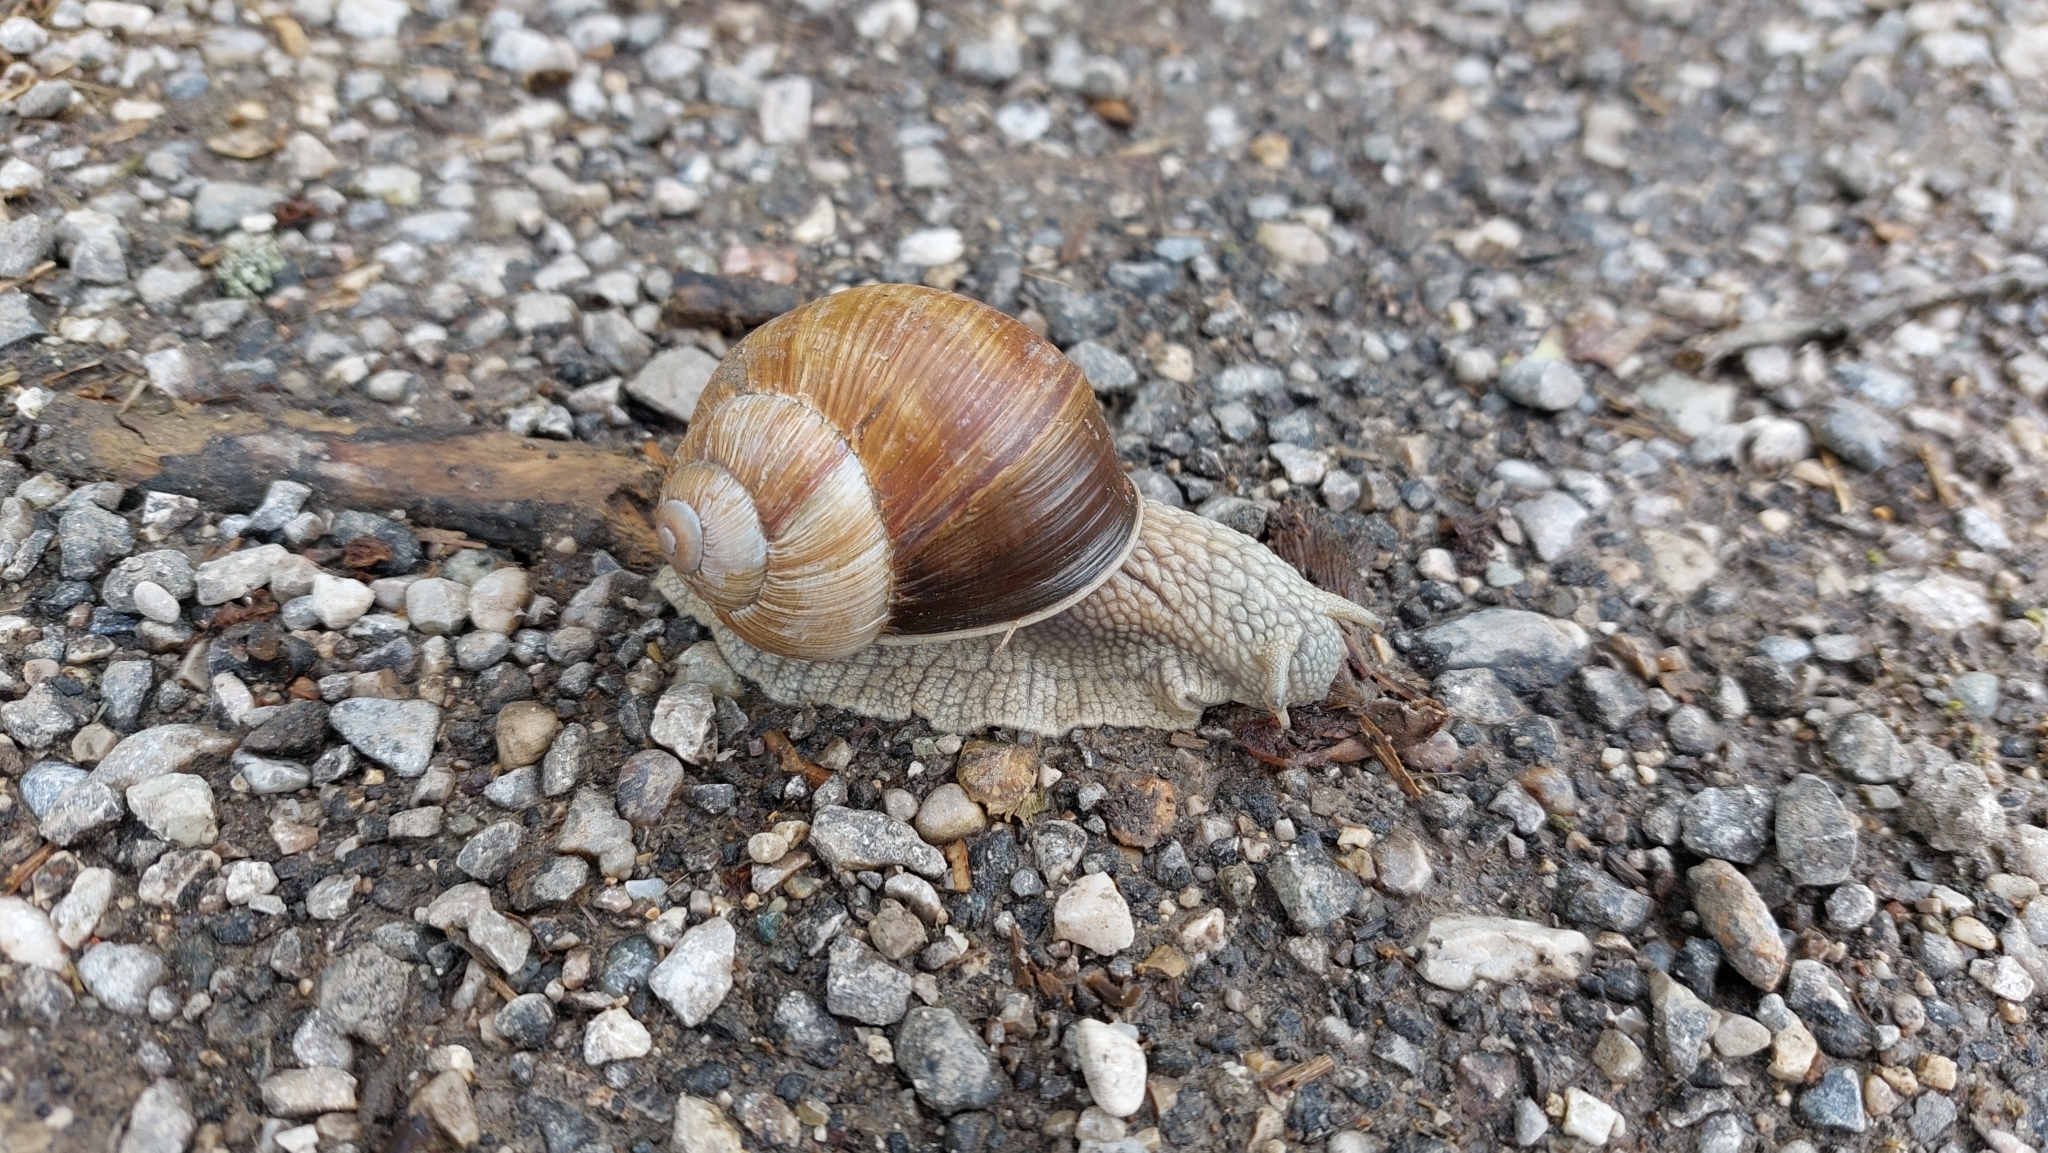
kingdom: Animalia
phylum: Mollusca
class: Gastropoda
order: Stylommatophora
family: Helicidae
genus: Helix
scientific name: Helix pomatia
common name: Roman snail
